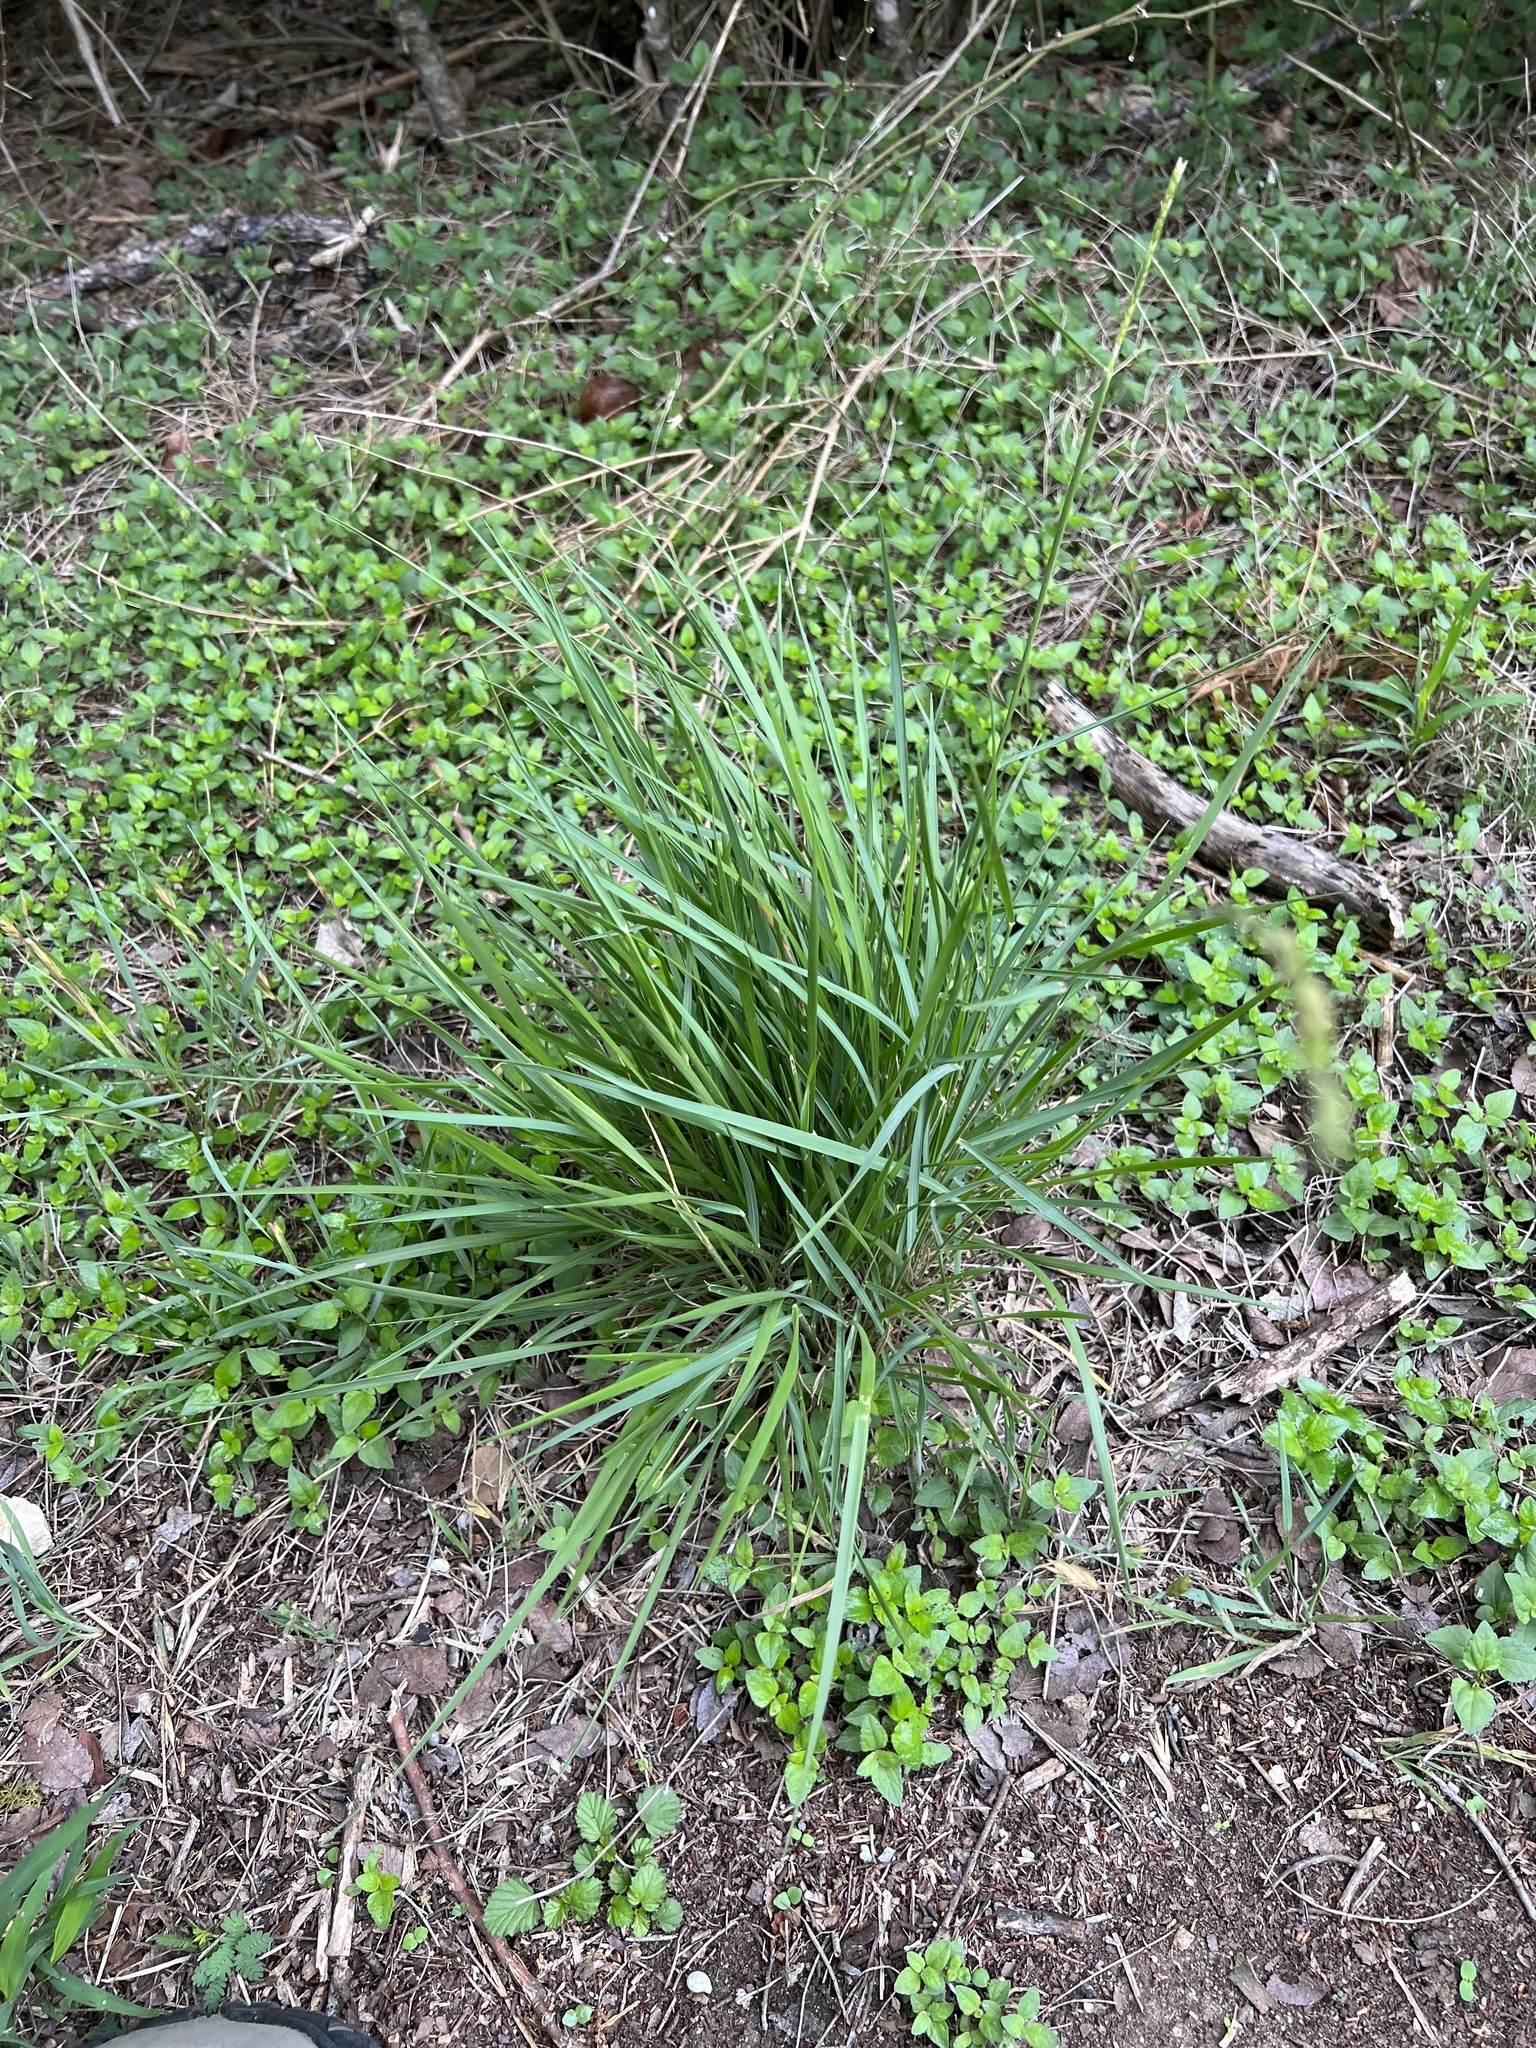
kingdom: Plantae
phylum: Tracheophyta
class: Liliopsida
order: Poales
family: Poaceae
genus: Eriochloa
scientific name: Eriochloa sericea
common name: Texas cup grass
